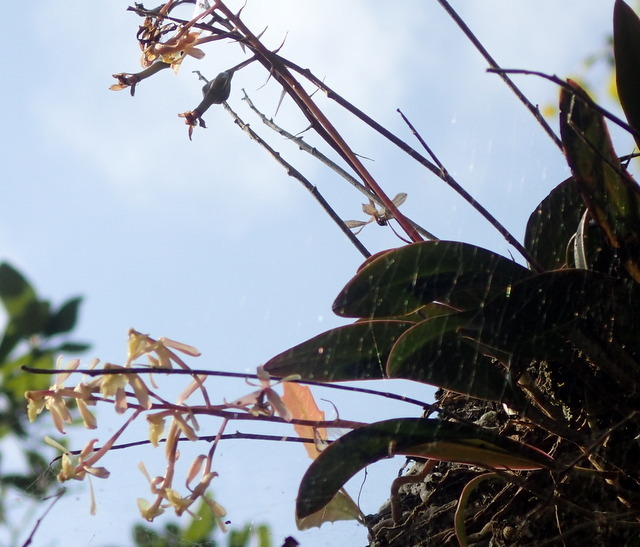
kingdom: Plantae
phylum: Tracheophyta
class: Liliopsida
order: Asparagales
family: Orchidaceae
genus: Epidendrum
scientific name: Epidendrum conopseum
